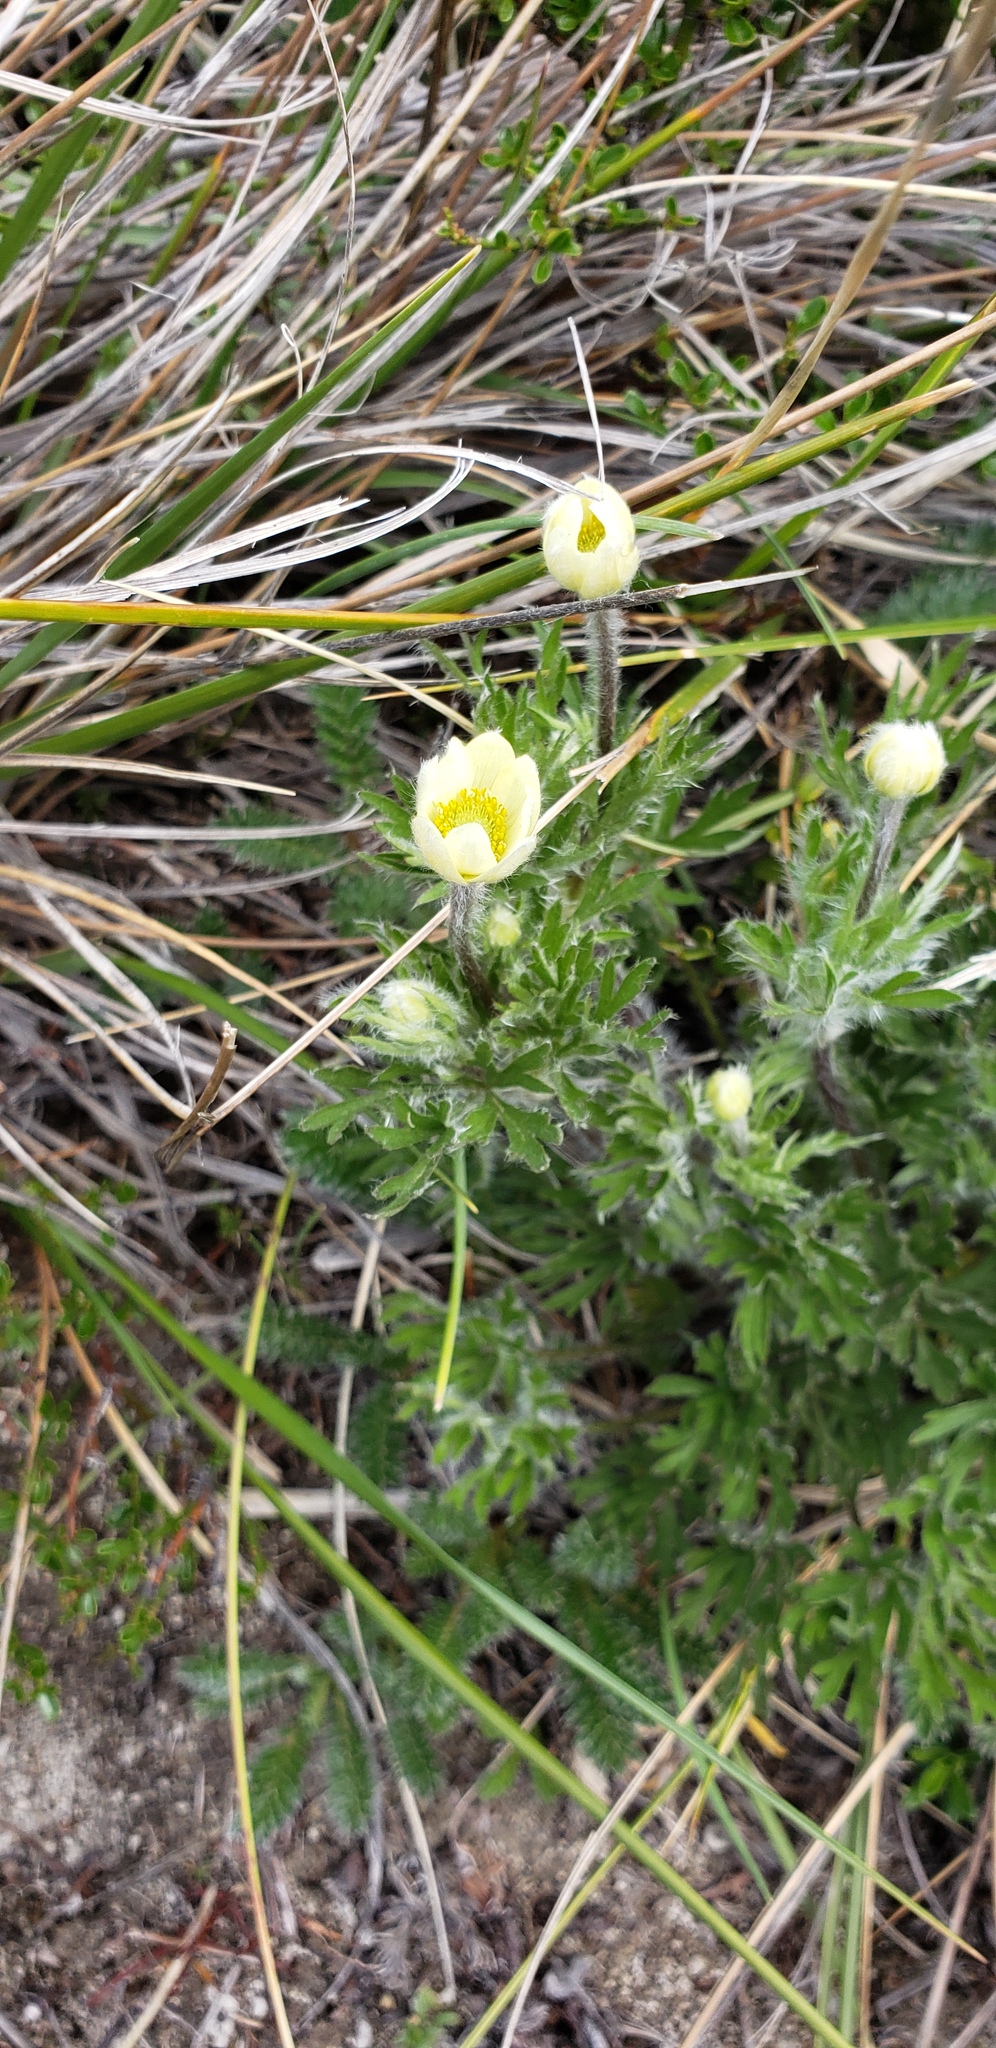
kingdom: Plantae
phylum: Tracheophyta
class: Magnoliopsida
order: Ranunculales
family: Ranunculaceae
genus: Anemone
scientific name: Anemone multifida
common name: Bird's-foot anemone
